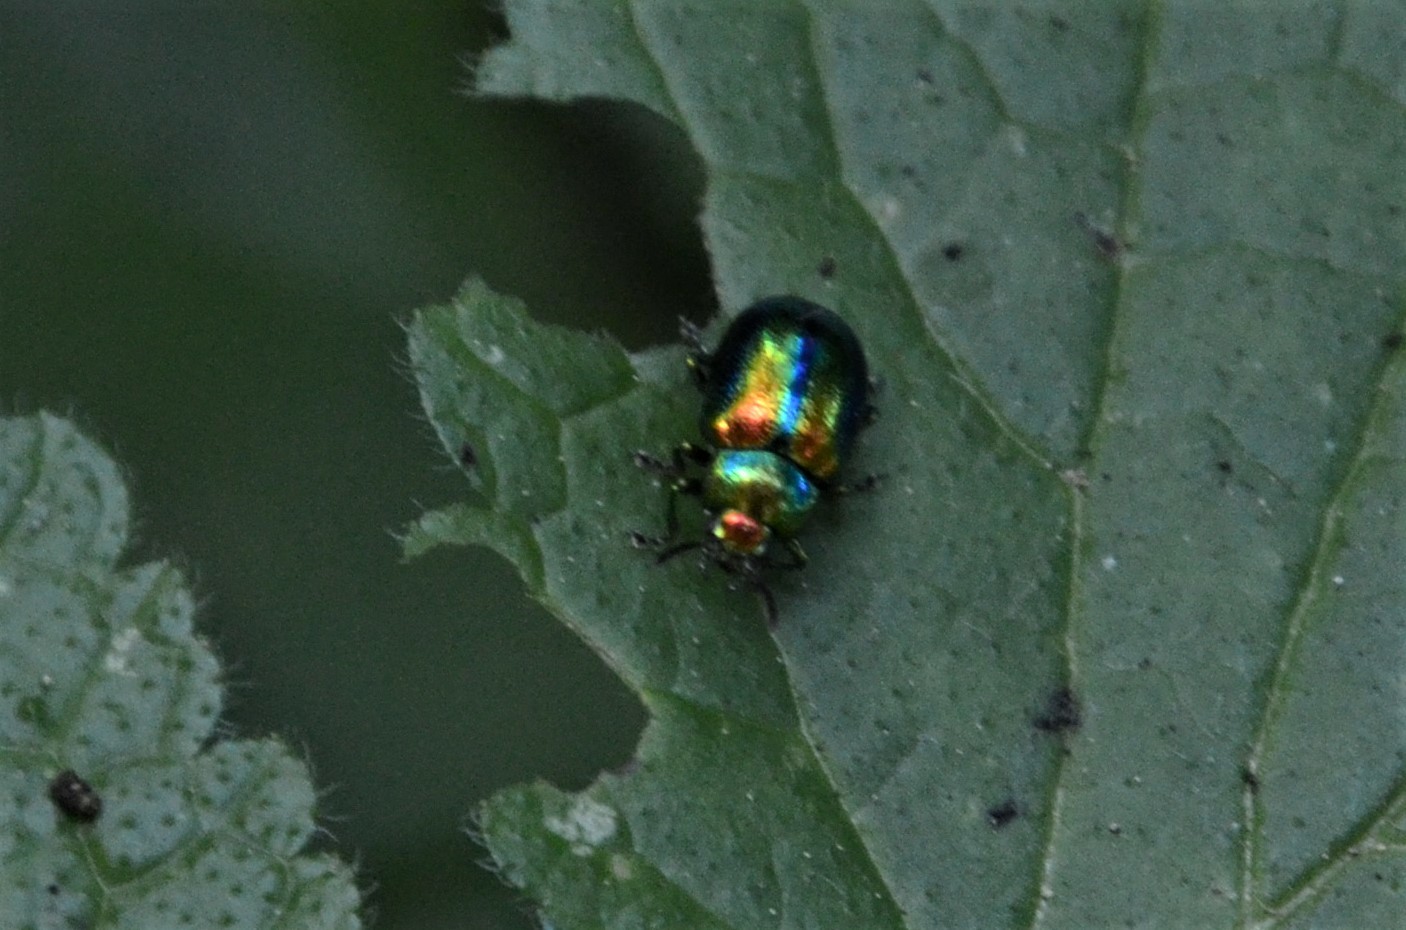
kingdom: Animalia
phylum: Arthropoda
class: Insecta
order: Coleoptera
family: Chrysomelidae
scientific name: Chrysomelidae
